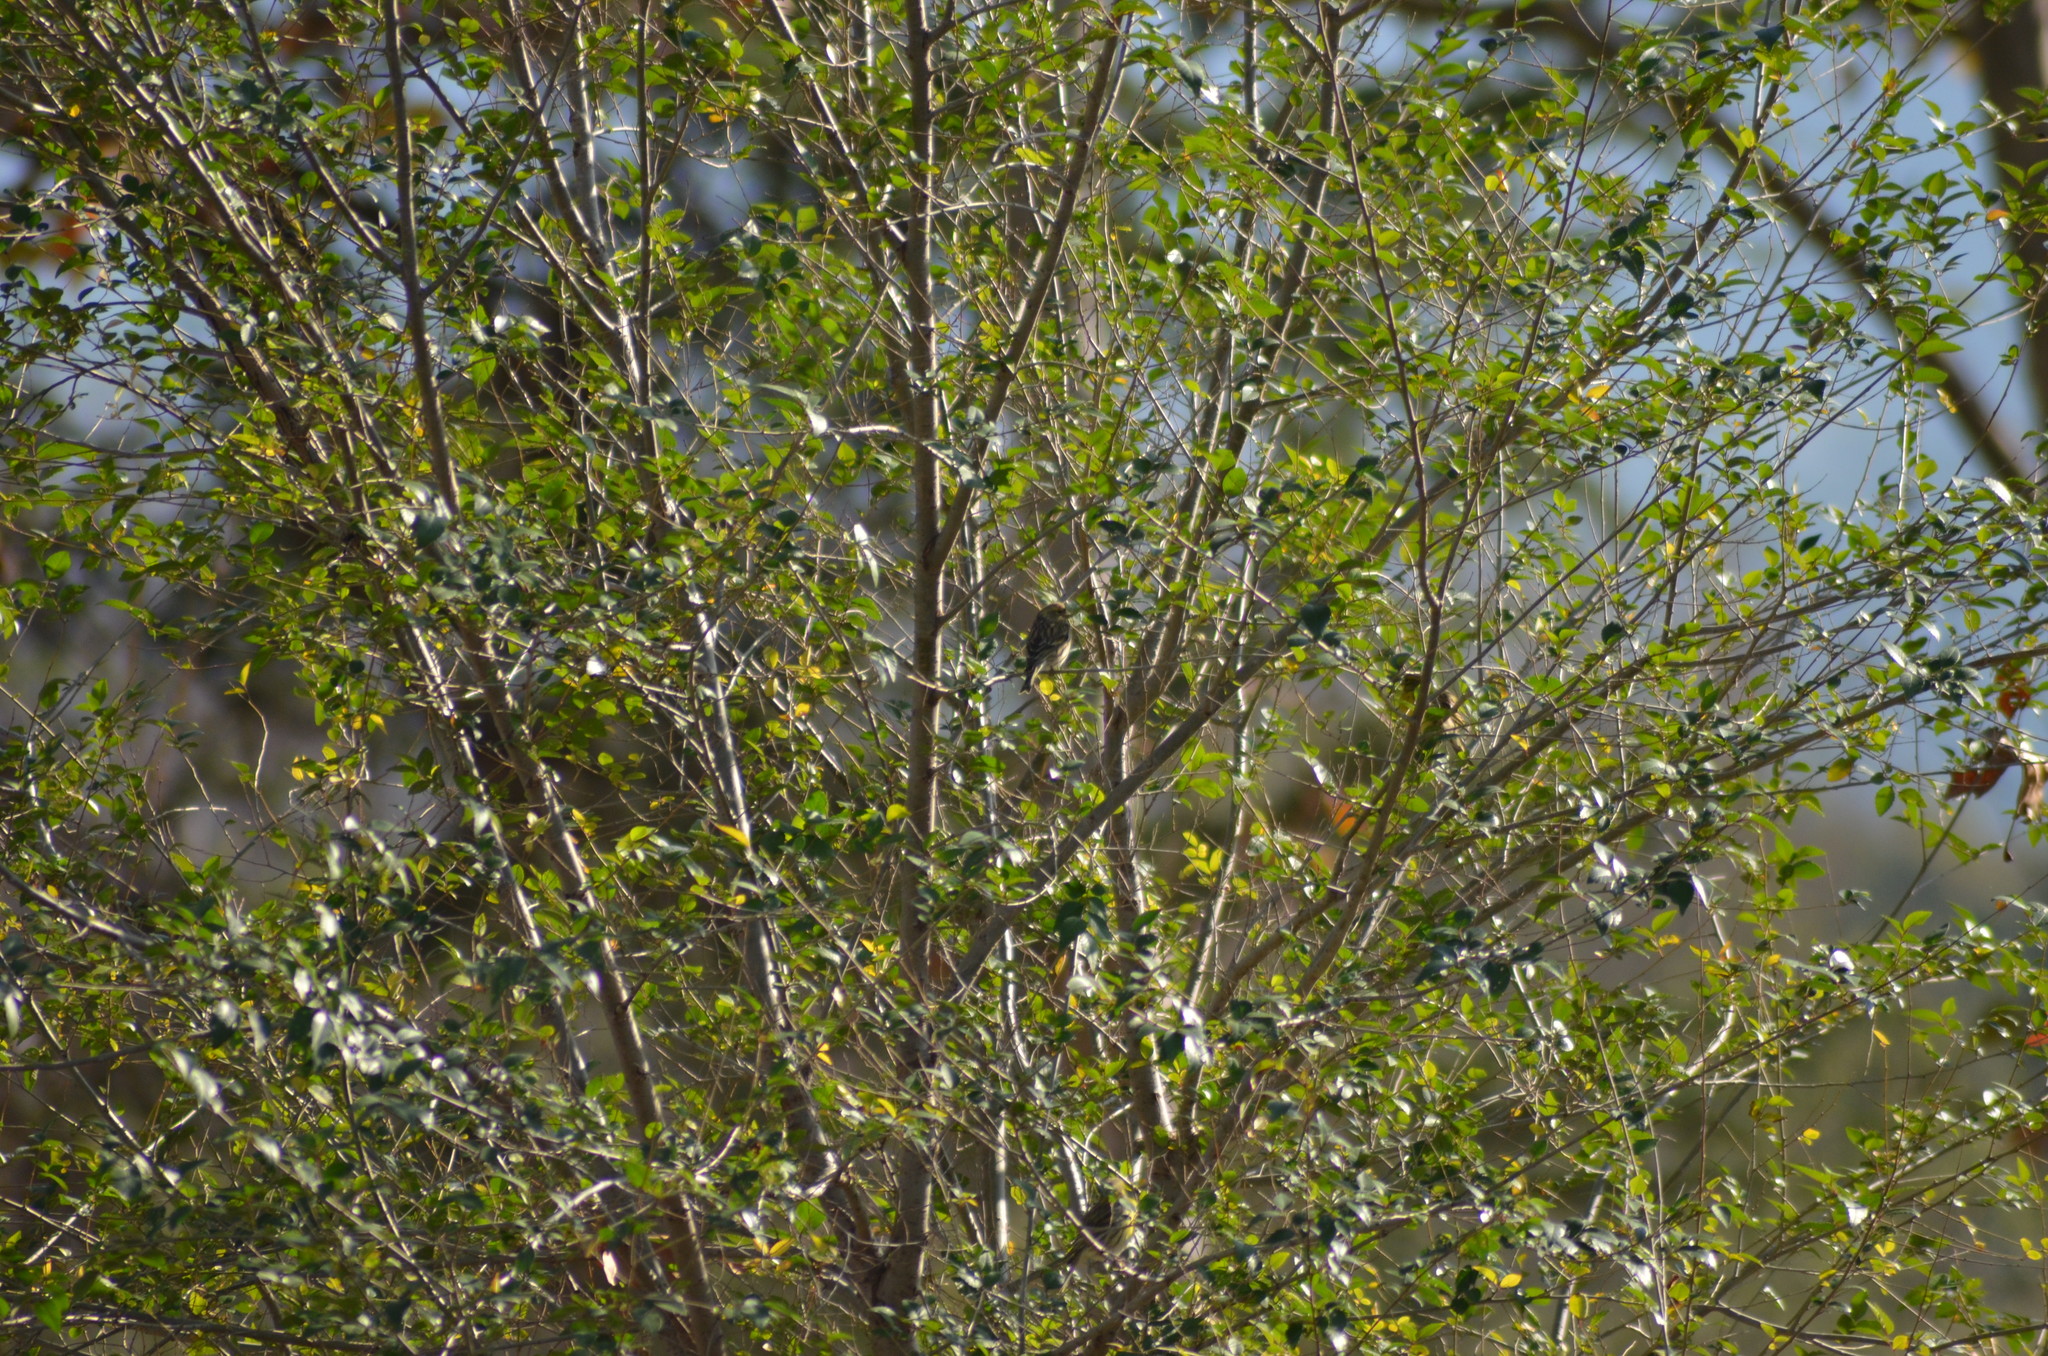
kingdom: Animalia
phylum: Chordata
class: Aves
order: Passeriformes
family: Fringillidae
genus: Serinus
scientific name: Serinus serinus
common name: European serin
